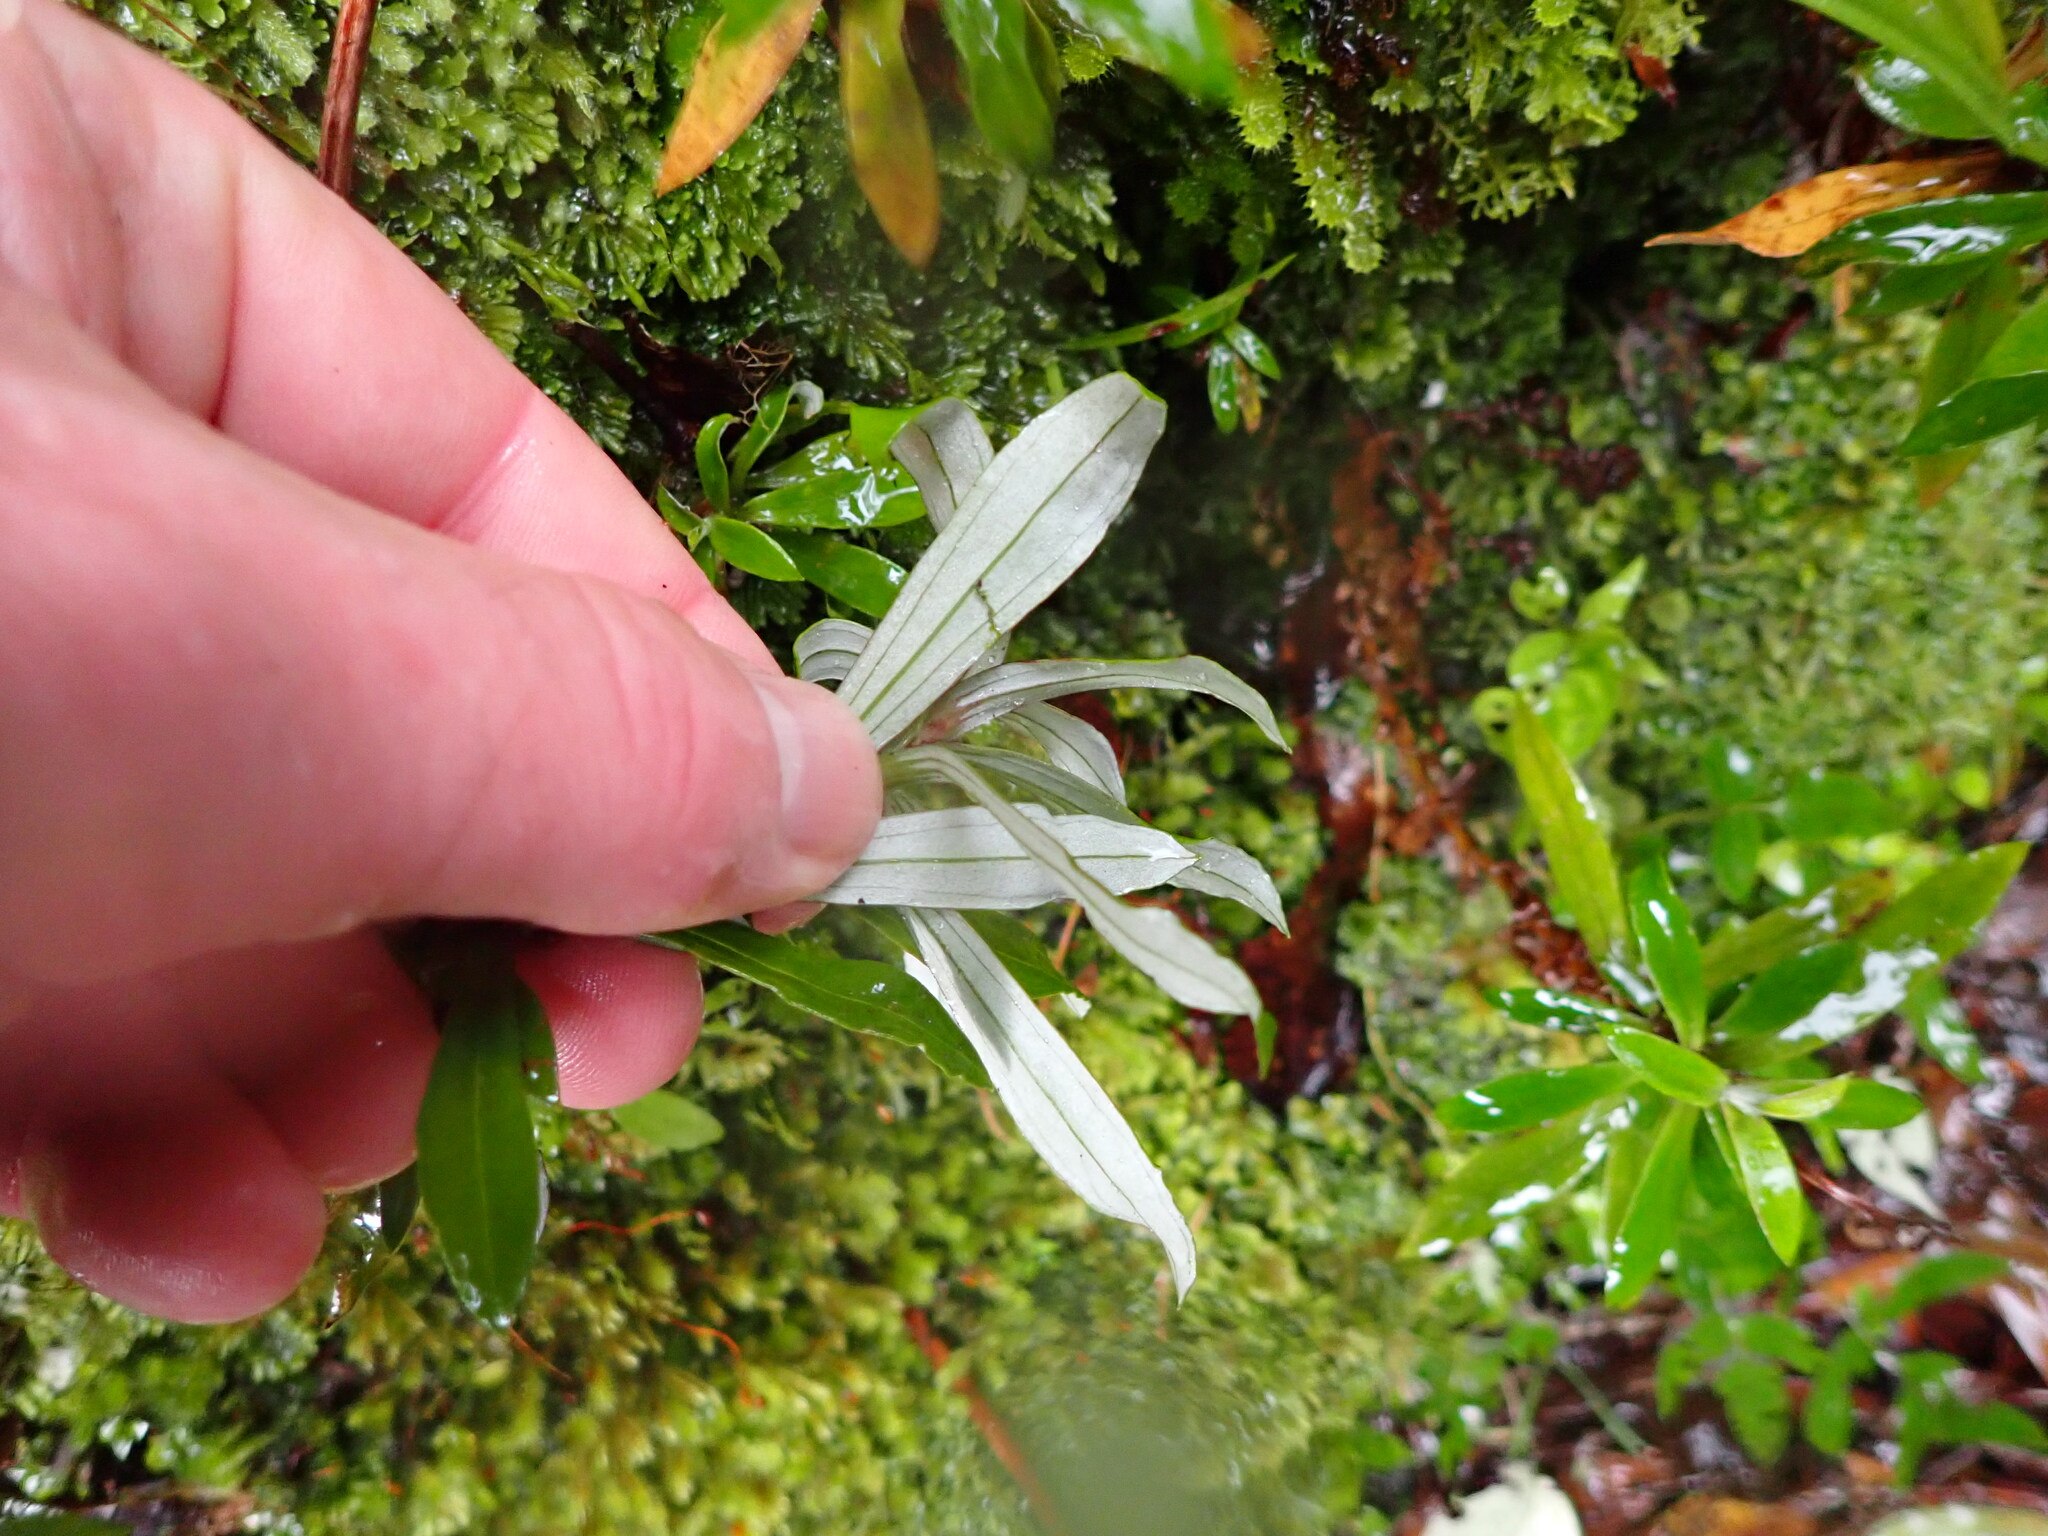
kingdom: Plantae
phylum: Tracheophyta
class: Magnoliopsida
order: Asterales
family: Asteraceae
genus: Anaphalioides
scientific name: Anaphalioides trinervis
